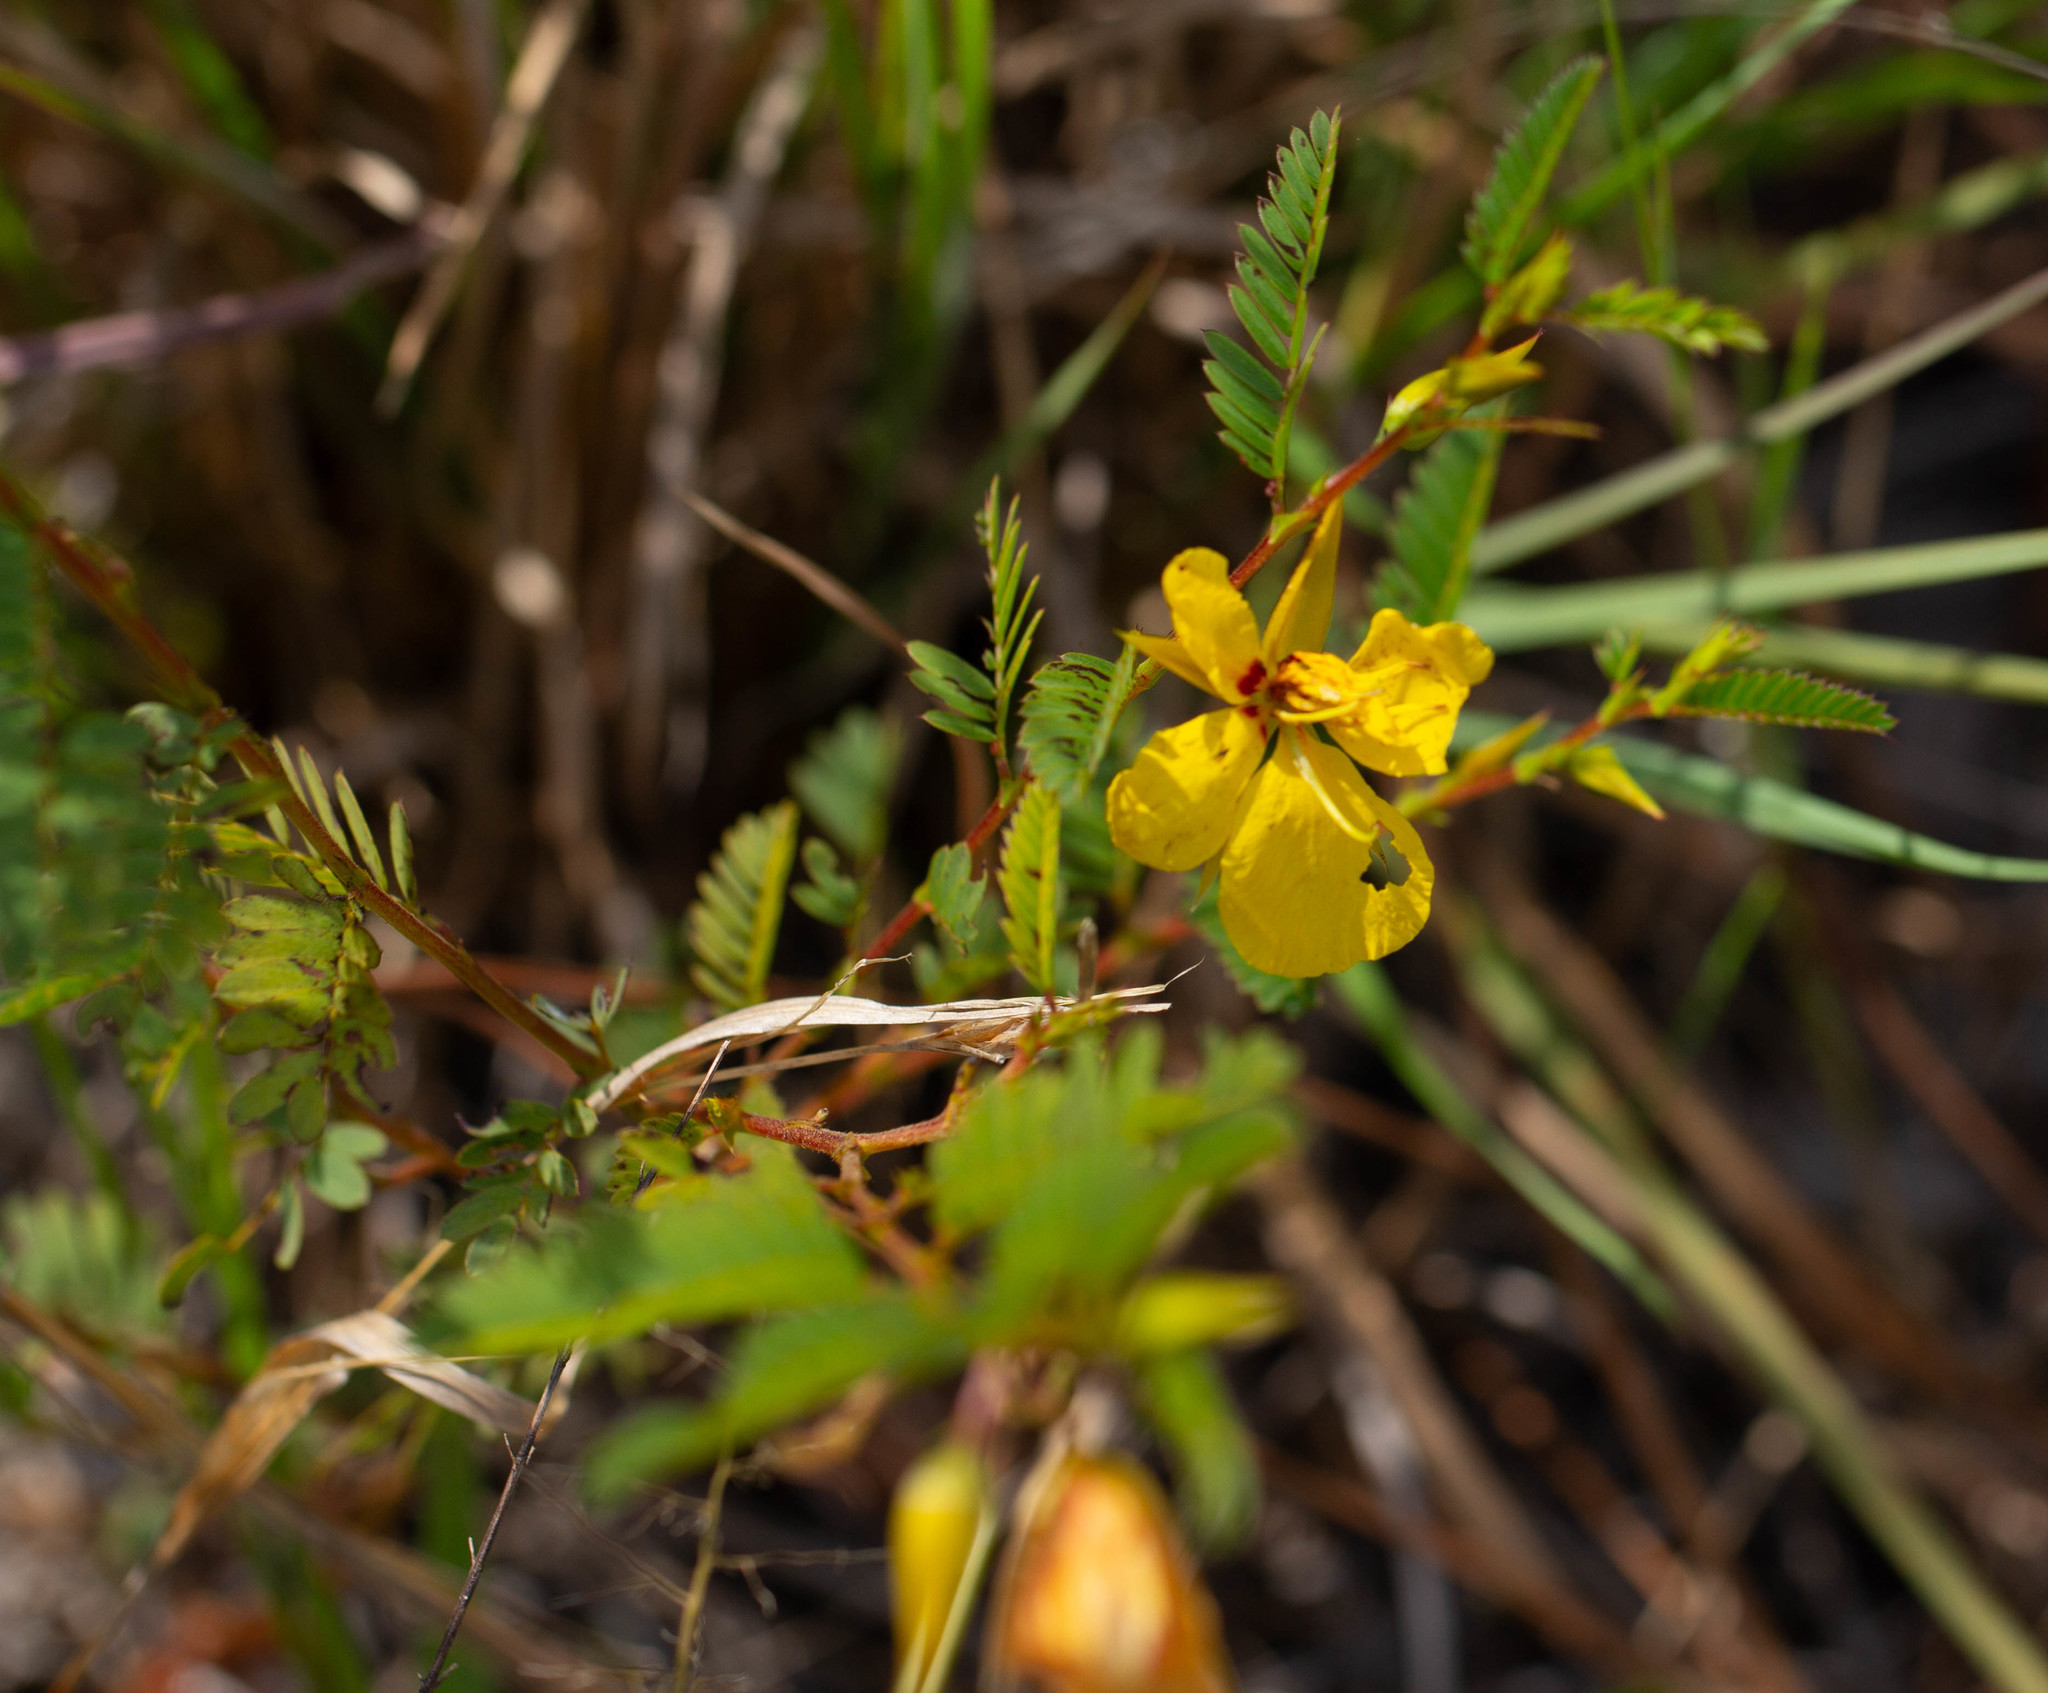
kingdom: Plantae
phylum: Tracheophyta
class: Magnoliopsida
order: Fabales
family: Fabaceae
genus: Chamaecrista
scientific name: Chamaecrista fasciculata
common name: Golden cassia
